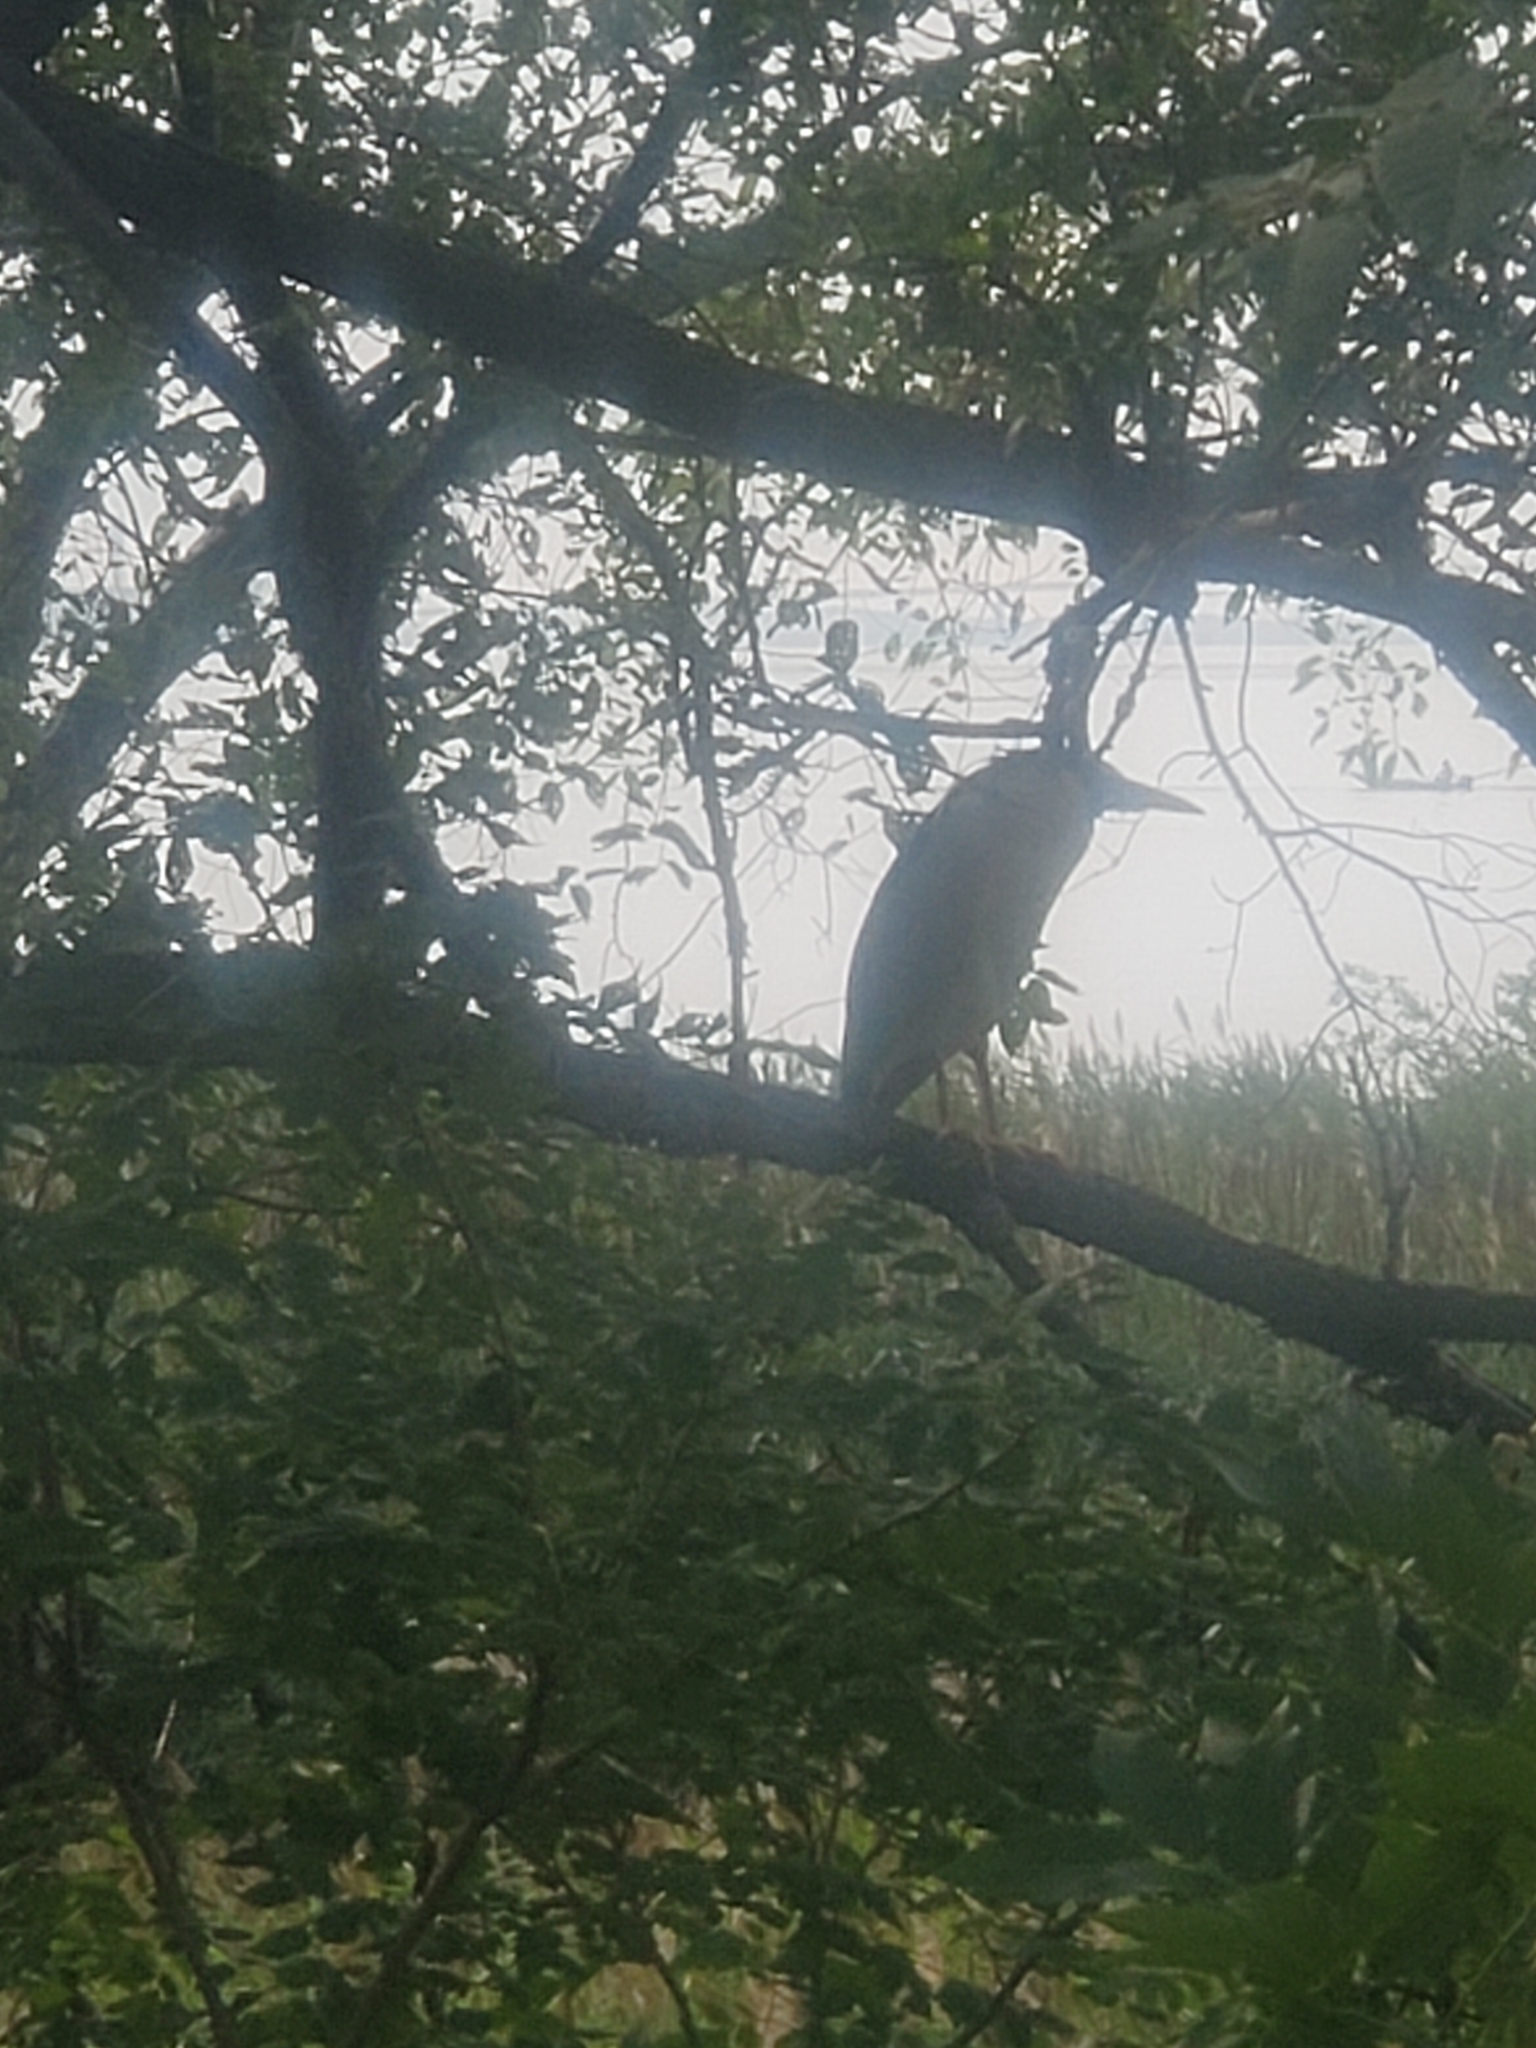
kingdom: Animalia
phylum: Chordata
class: Aves
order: Pelecaniformes
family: Ardeidae
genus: Nycticorax
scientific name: Nycticorax nycticorax
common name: Black-crowned night heron
